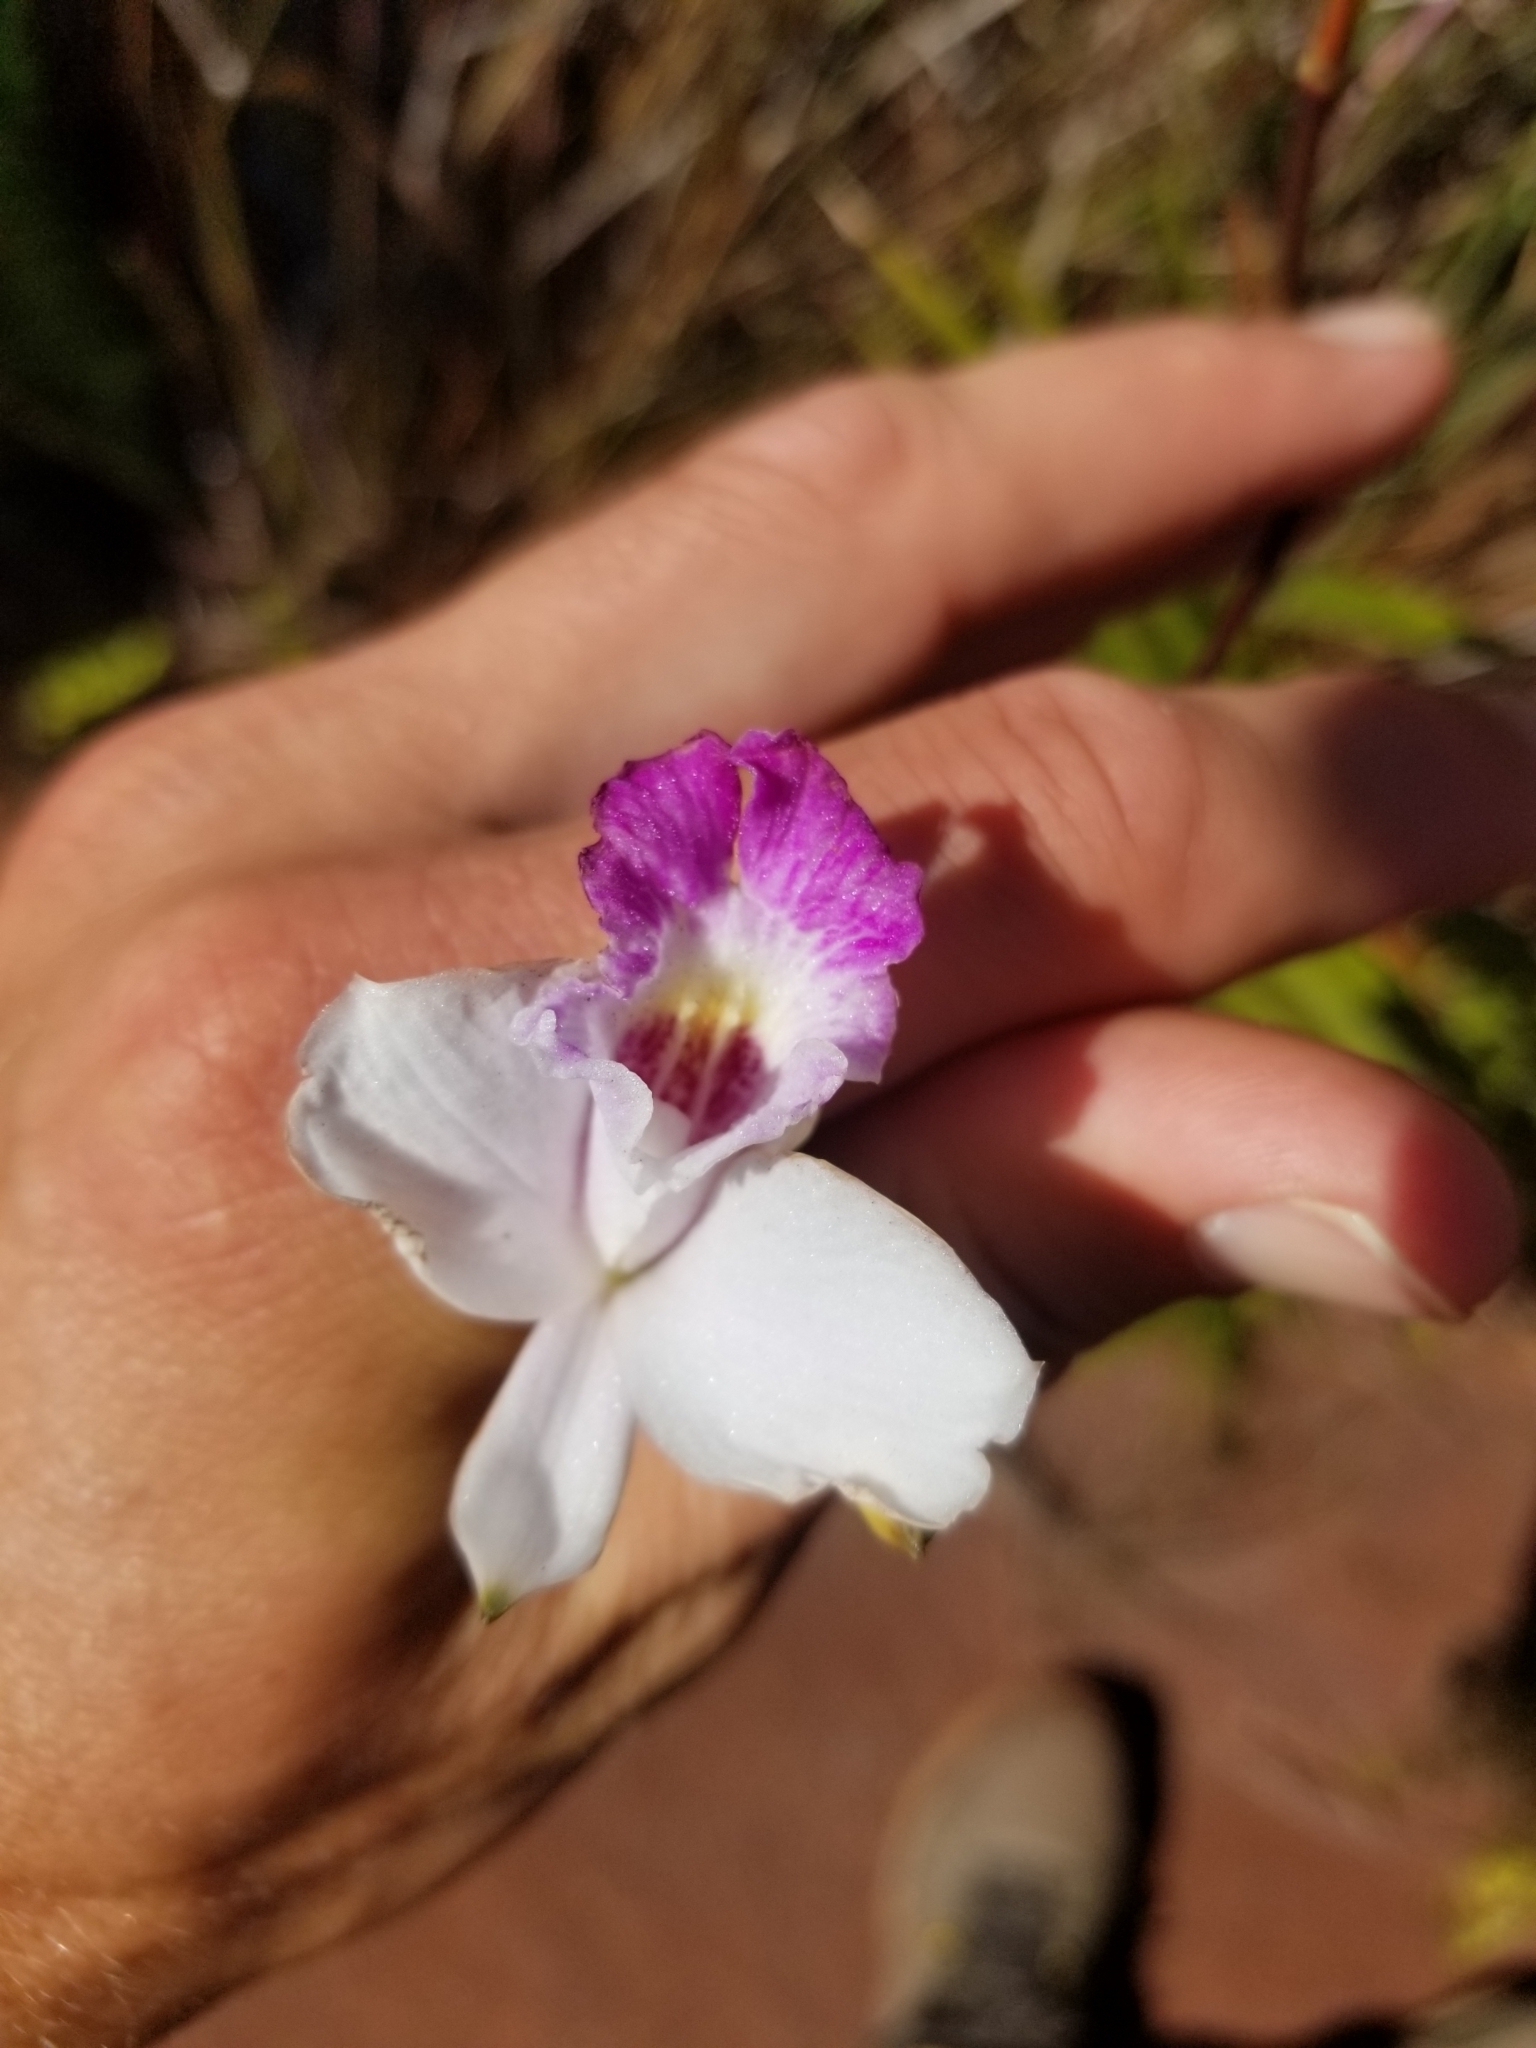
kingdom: Plantae
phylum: Tracheophyta
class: Liliopsida
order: Asparagales
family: Orchidaceae
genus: Arundina
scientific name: Arundina graminifolia
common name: Bamboo orchid
